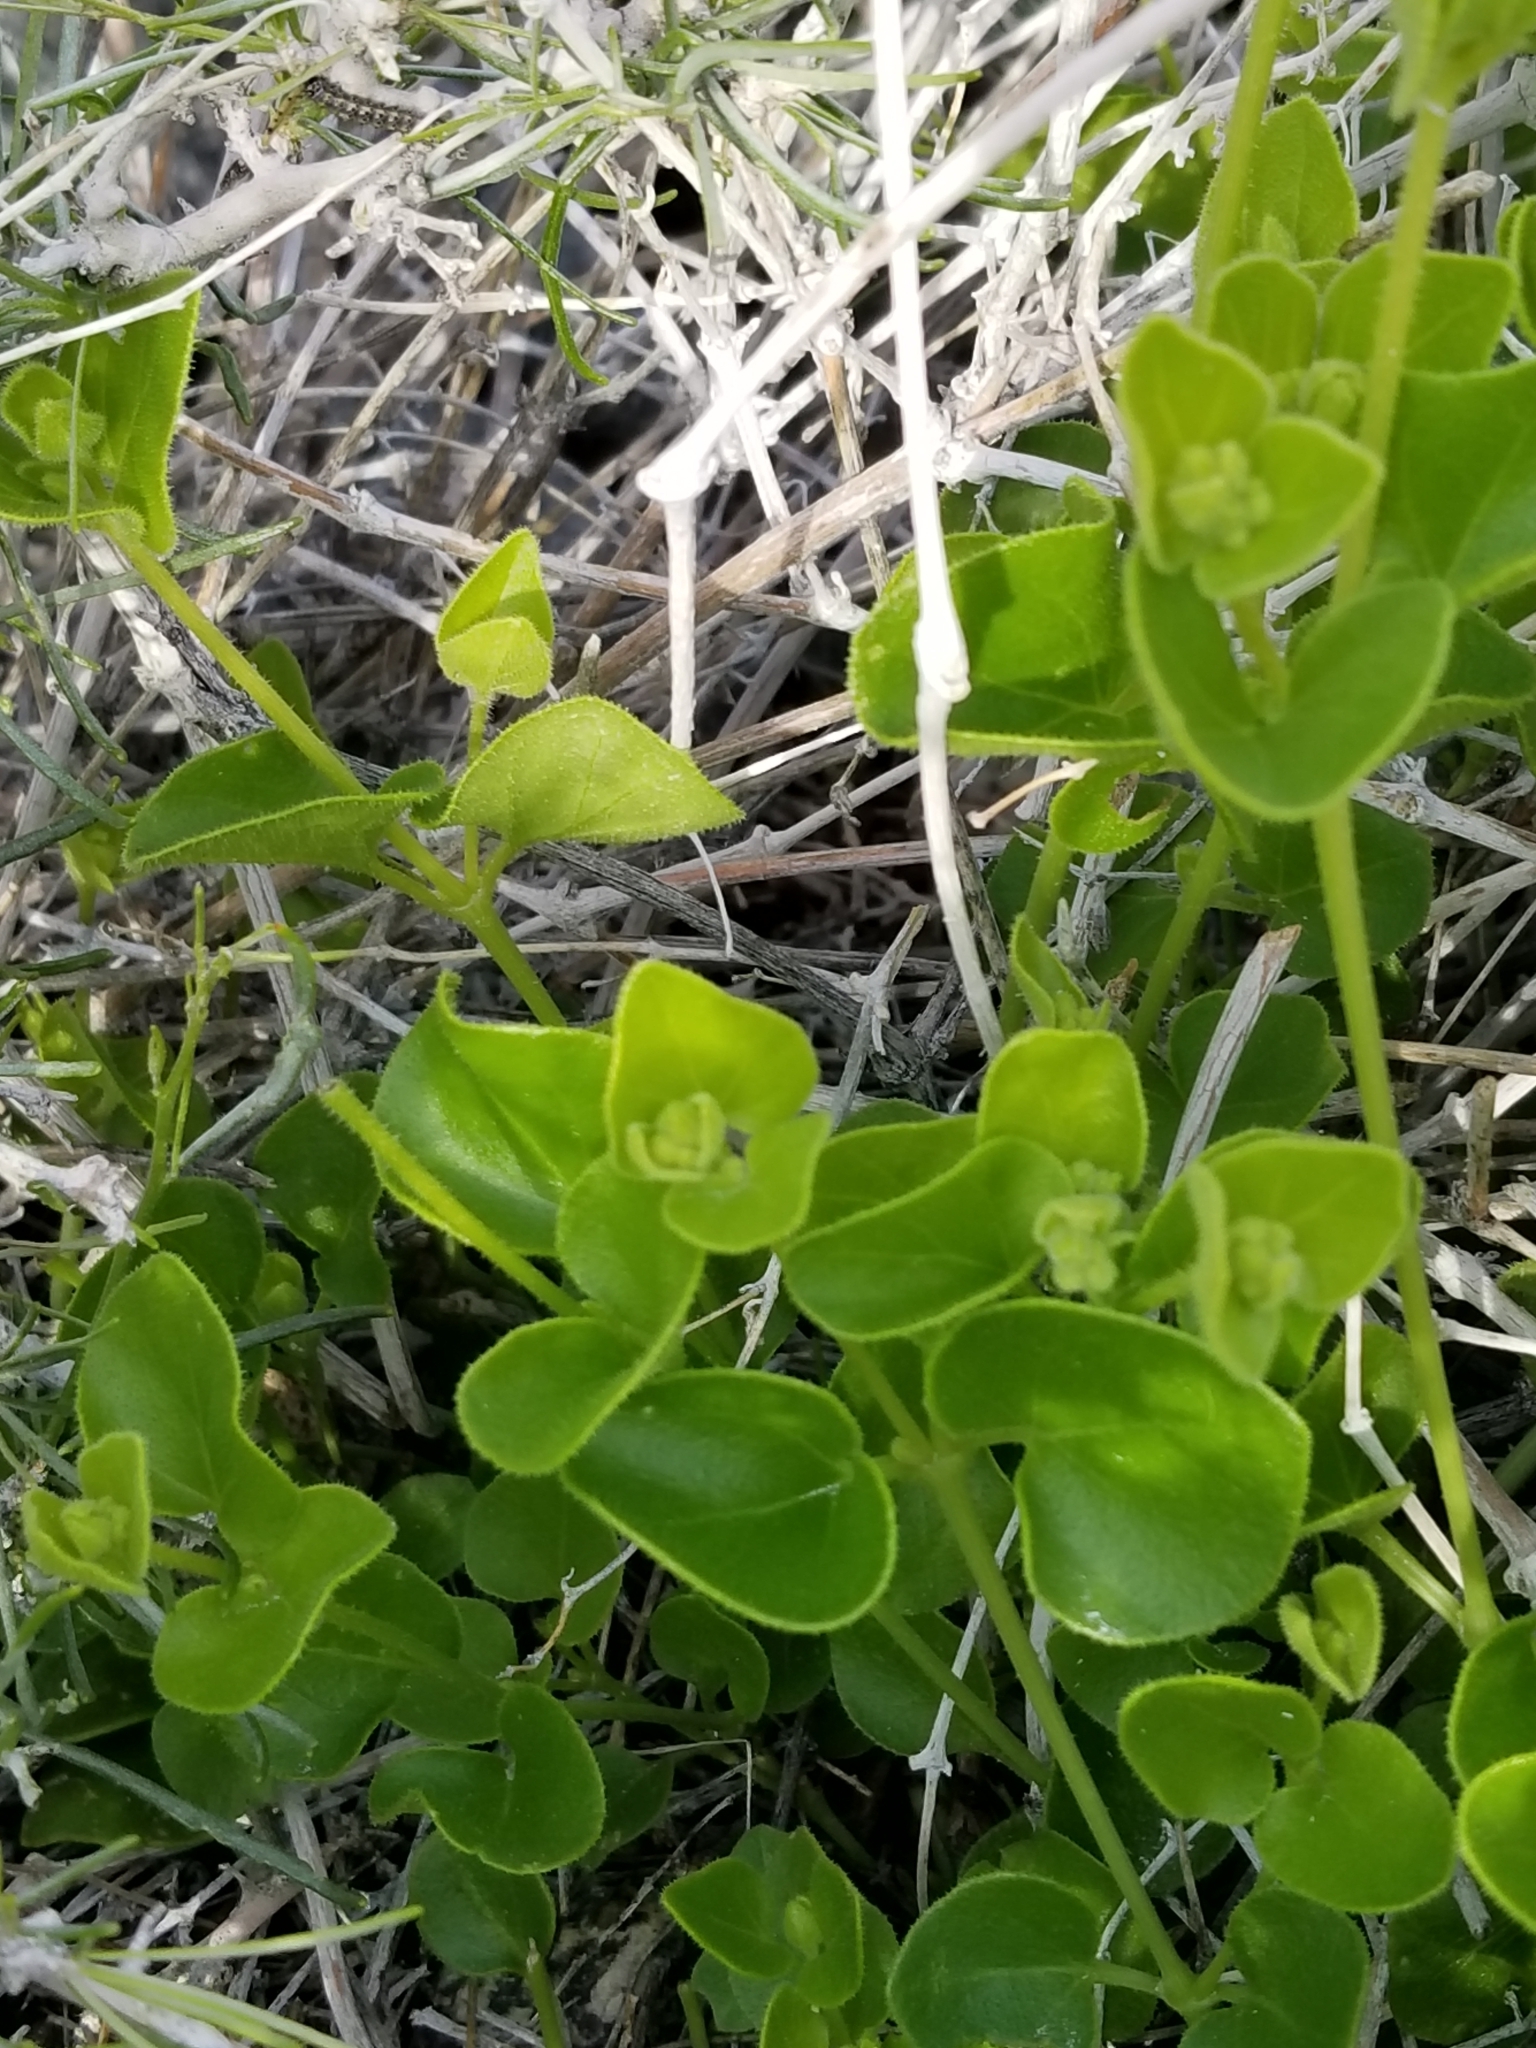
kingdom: Plantae
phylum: Tracheophyta
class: Magnoliopsida
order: Caryophyllales
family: Nyctaginaceae
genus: Mirabilis
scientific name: Mirabilis laevis
